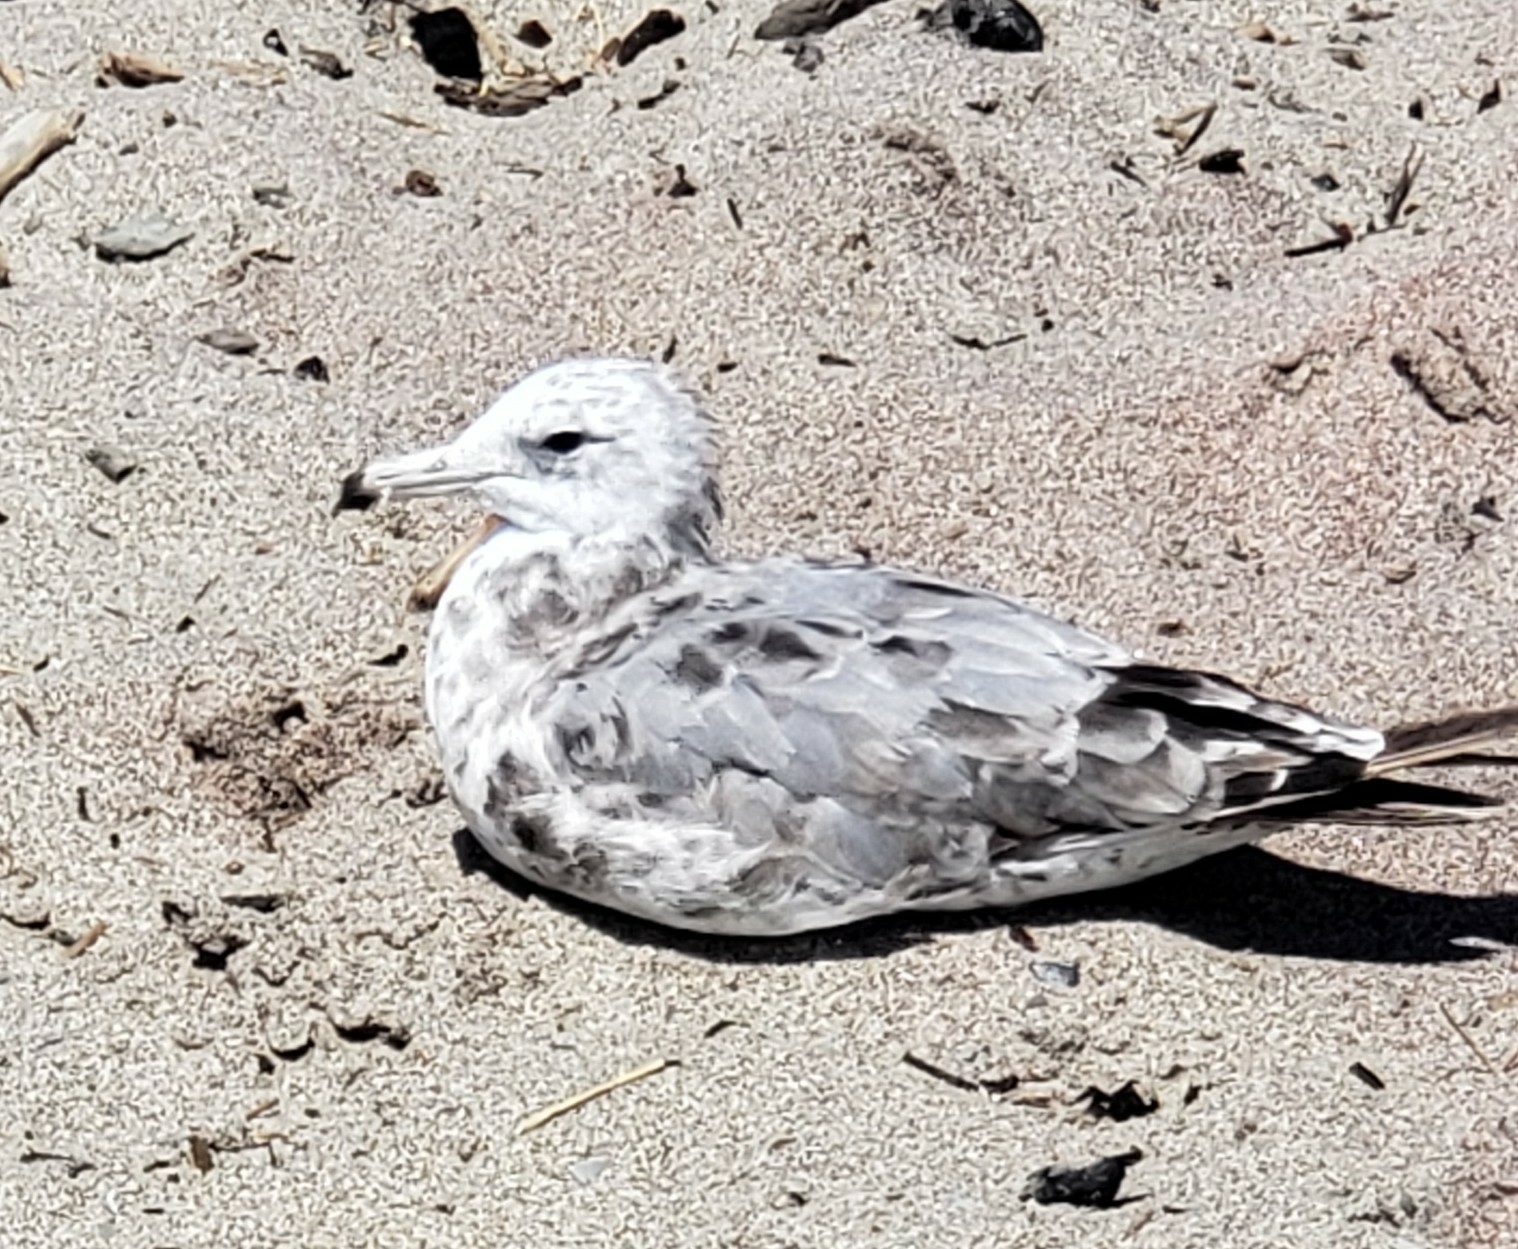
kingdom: Animalia
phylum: Chordata
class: Aves
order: Charadriiformes
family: Laridae
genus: Larus
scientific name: Larus occidentalis
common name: Western gull
